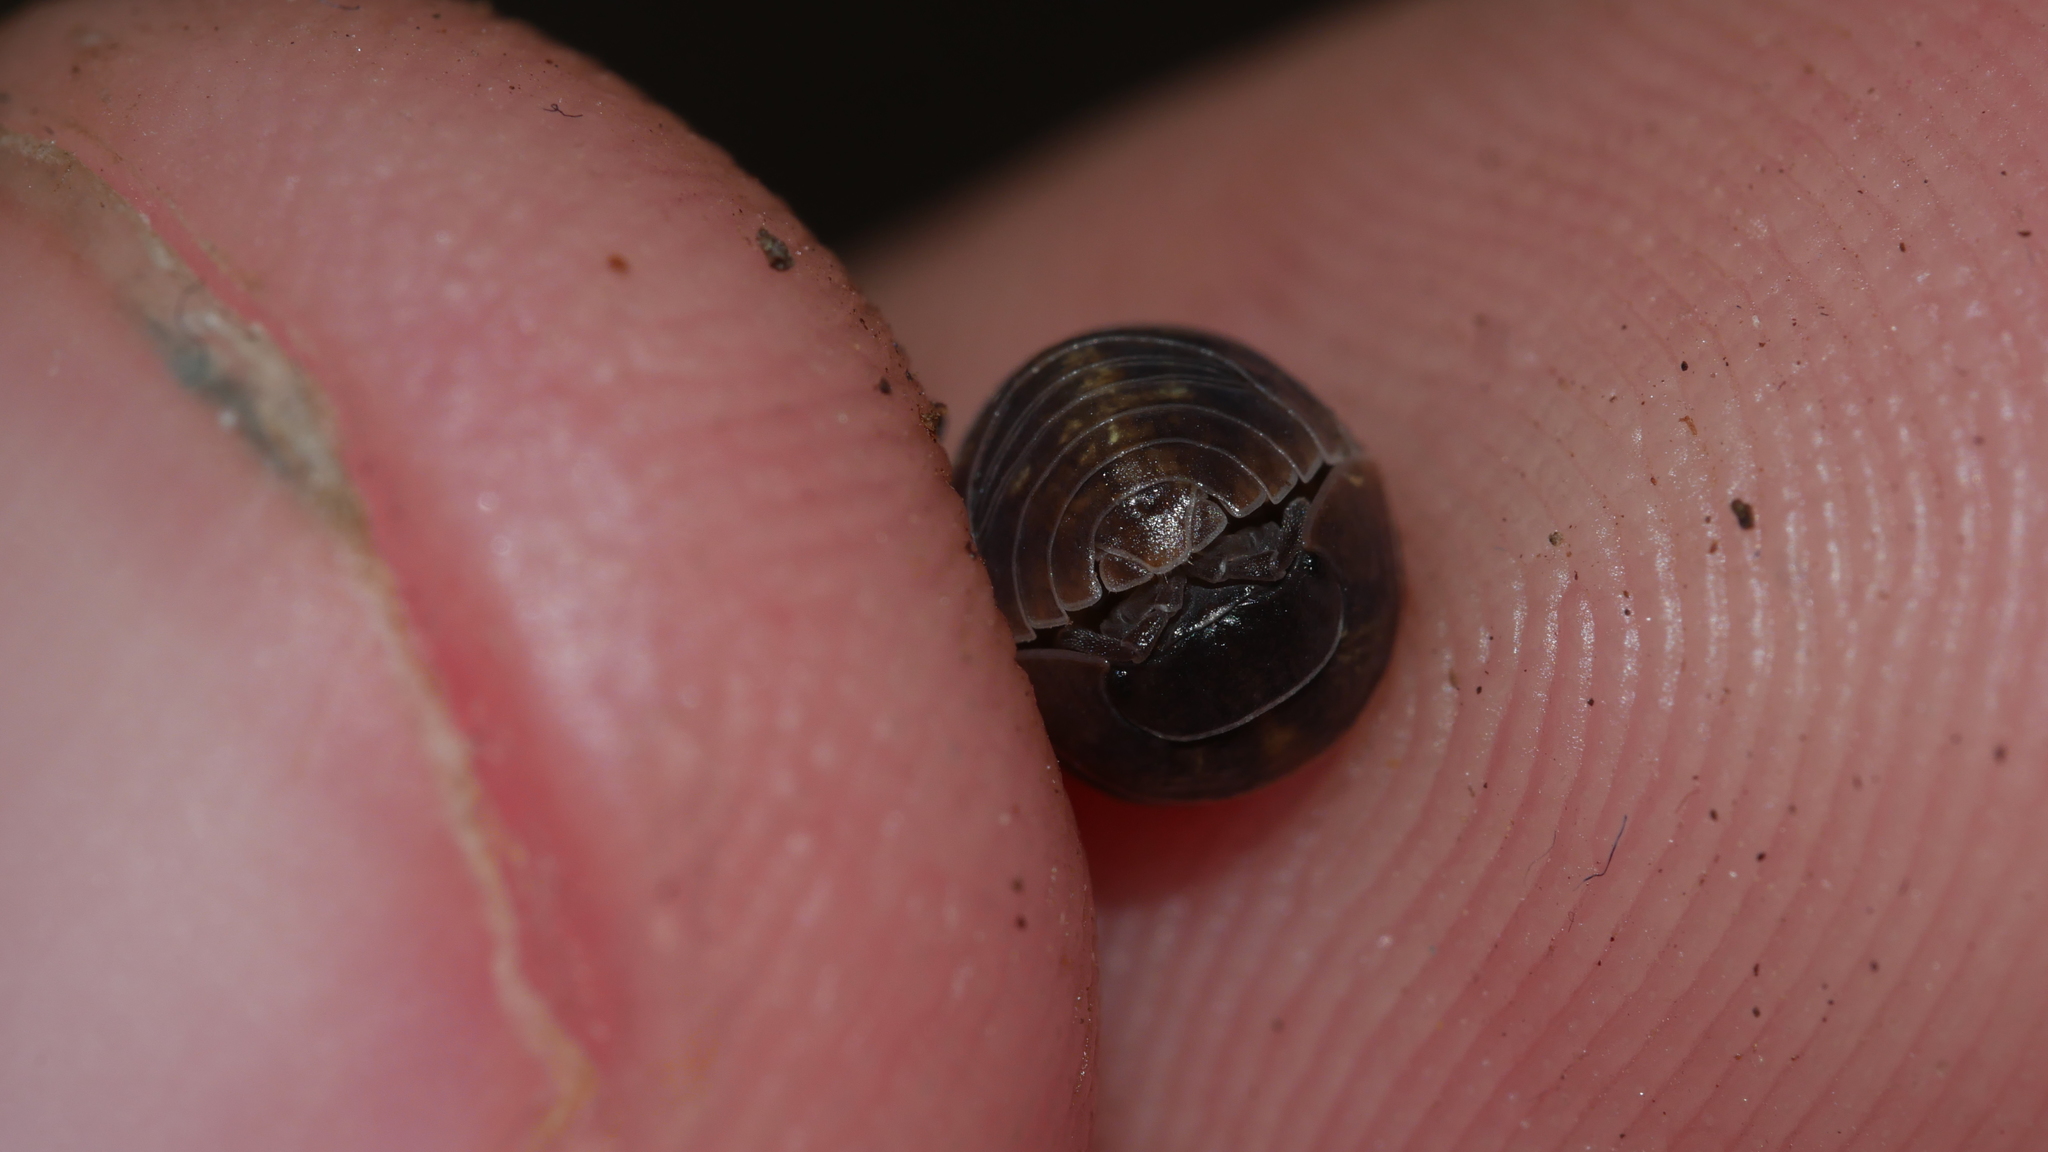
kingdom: Animalia
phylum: Arthropoda
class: Malacostraca
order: Isopoda
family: Armadillidiidae
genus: Armadillidium
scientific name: Armadillidium vulgare
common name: Common pill woodlouse
